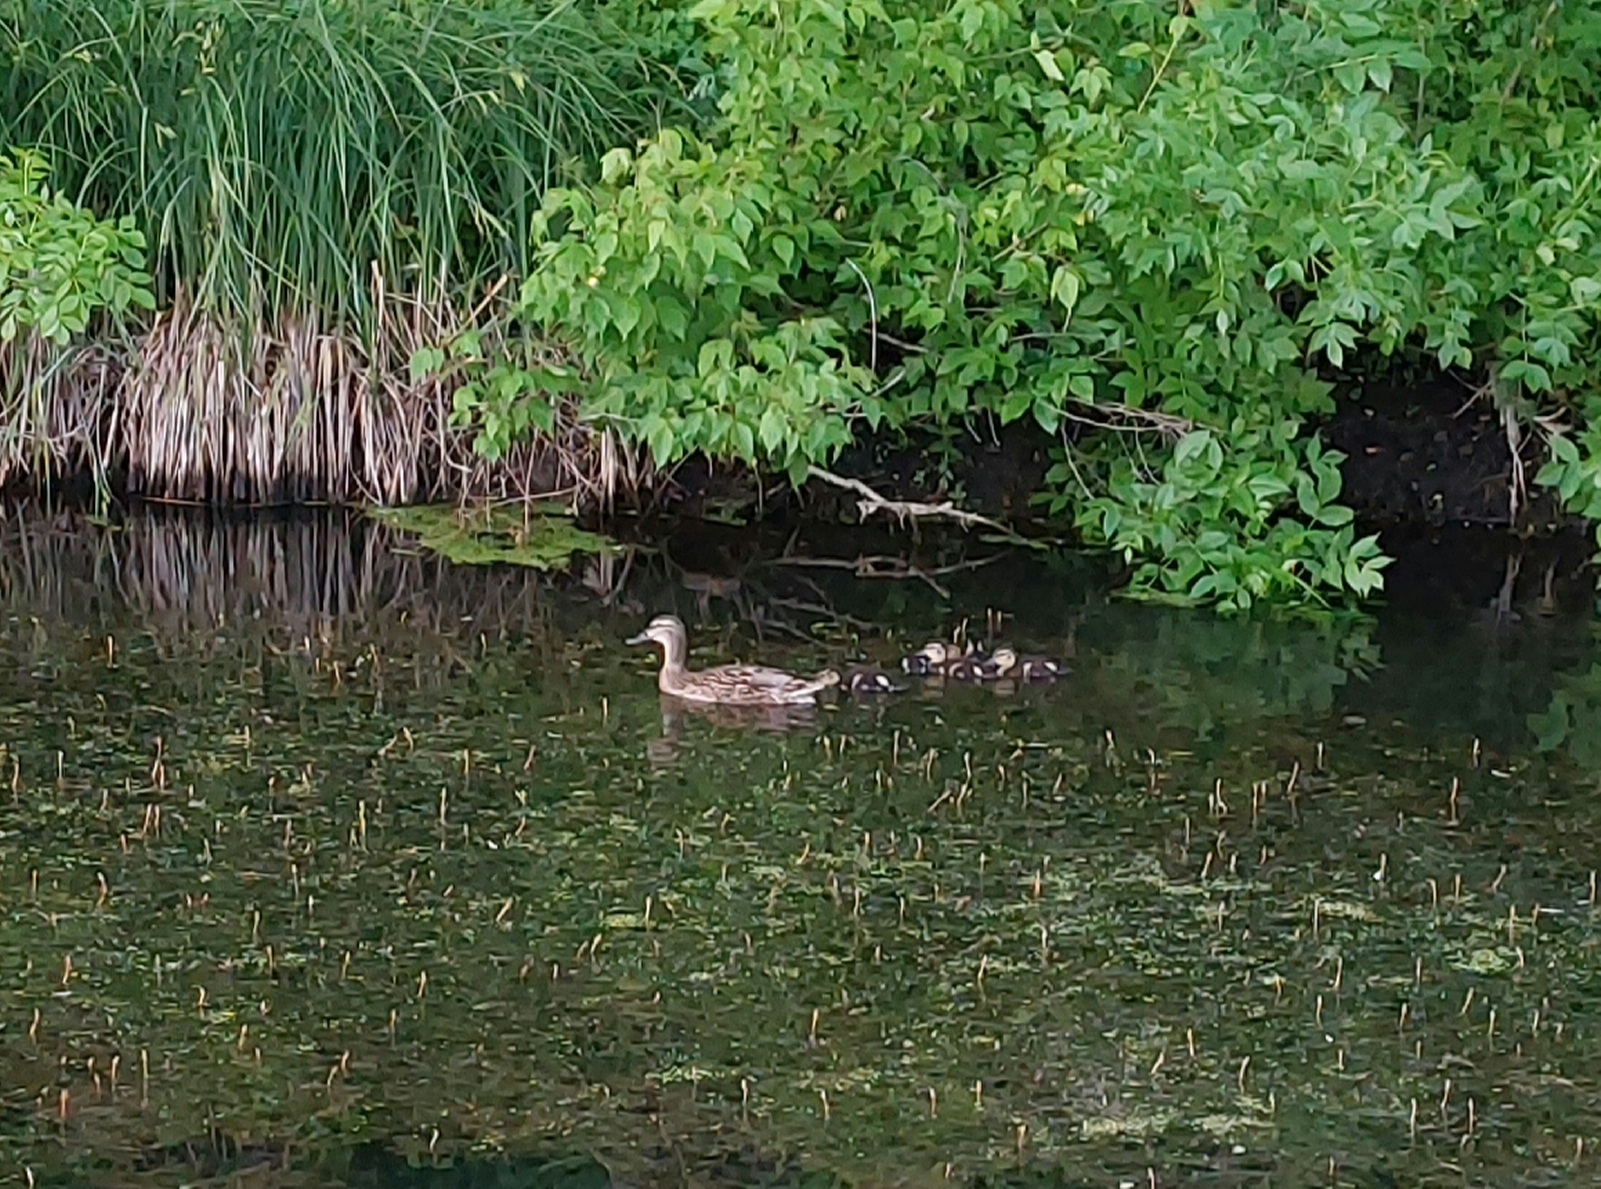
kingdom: Animalia
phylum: Chordata
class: Aves
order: Anseriformes
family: Anatidae
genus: Anas
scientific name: Anas platyrhynchos
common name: Mallard
